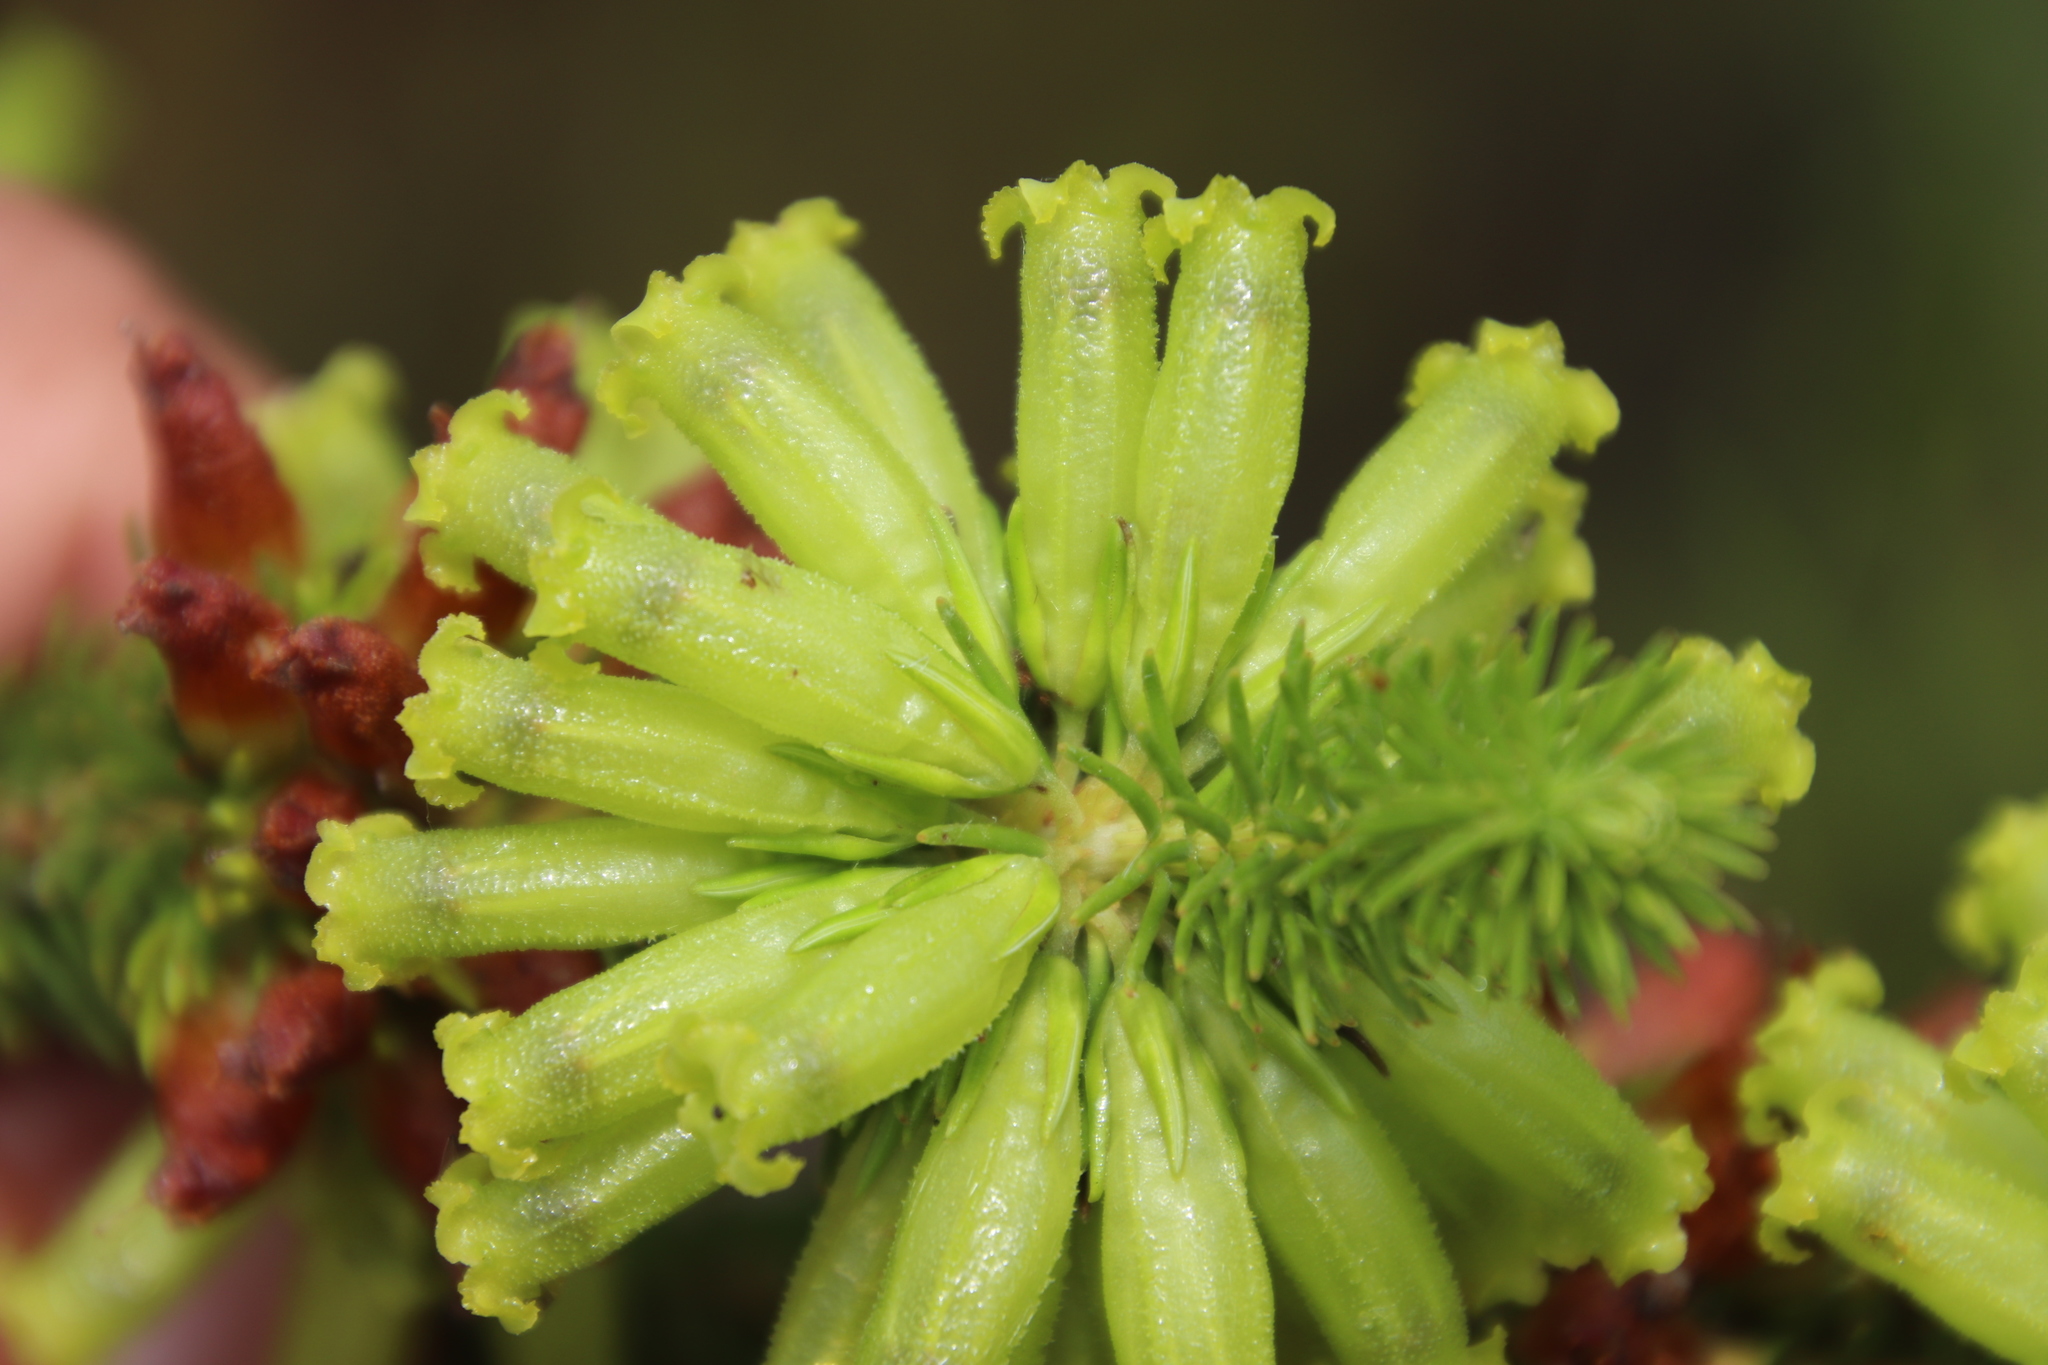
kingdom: Plantae
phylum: Tracheophyta
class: Magnoliopsida
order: Ericales
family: Ericaceae
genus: Erica
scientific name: Erica viscaria
